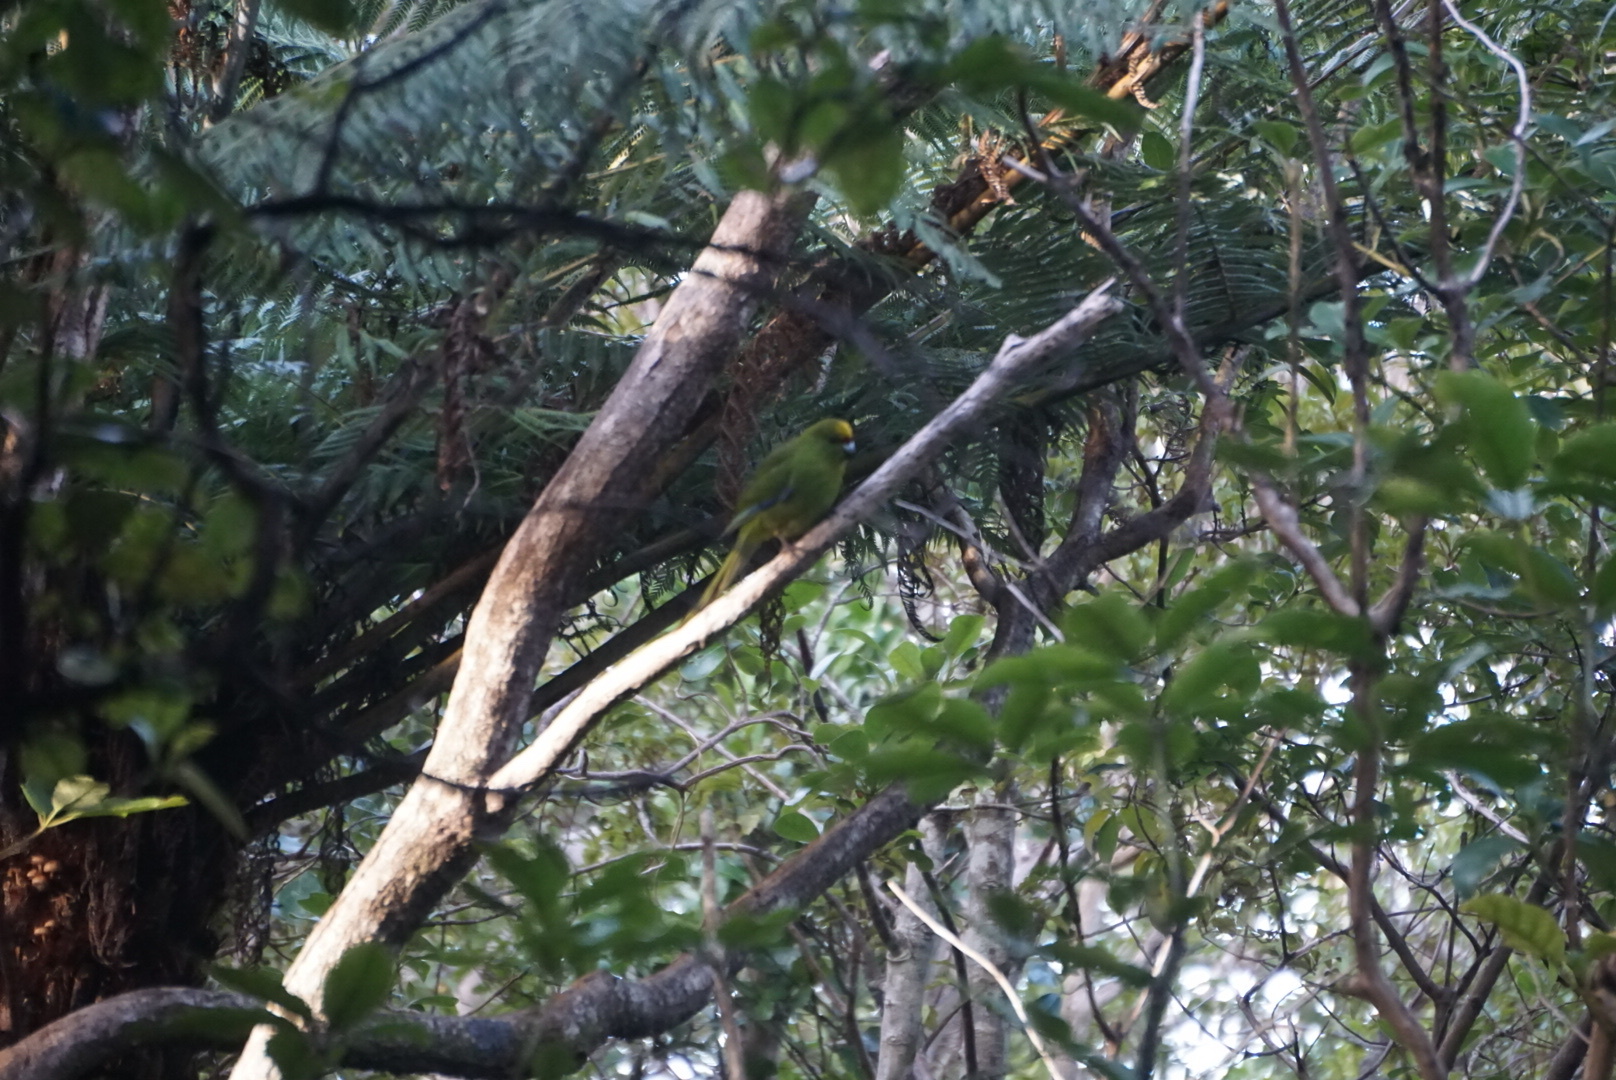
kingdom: Animalia
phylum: Chordata
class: Aves
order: Psittaciformes
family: Psittacidae
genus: Cyanoramphus
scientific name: Cyanoramphus auriceps
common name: Yellow-crowned parakeet
